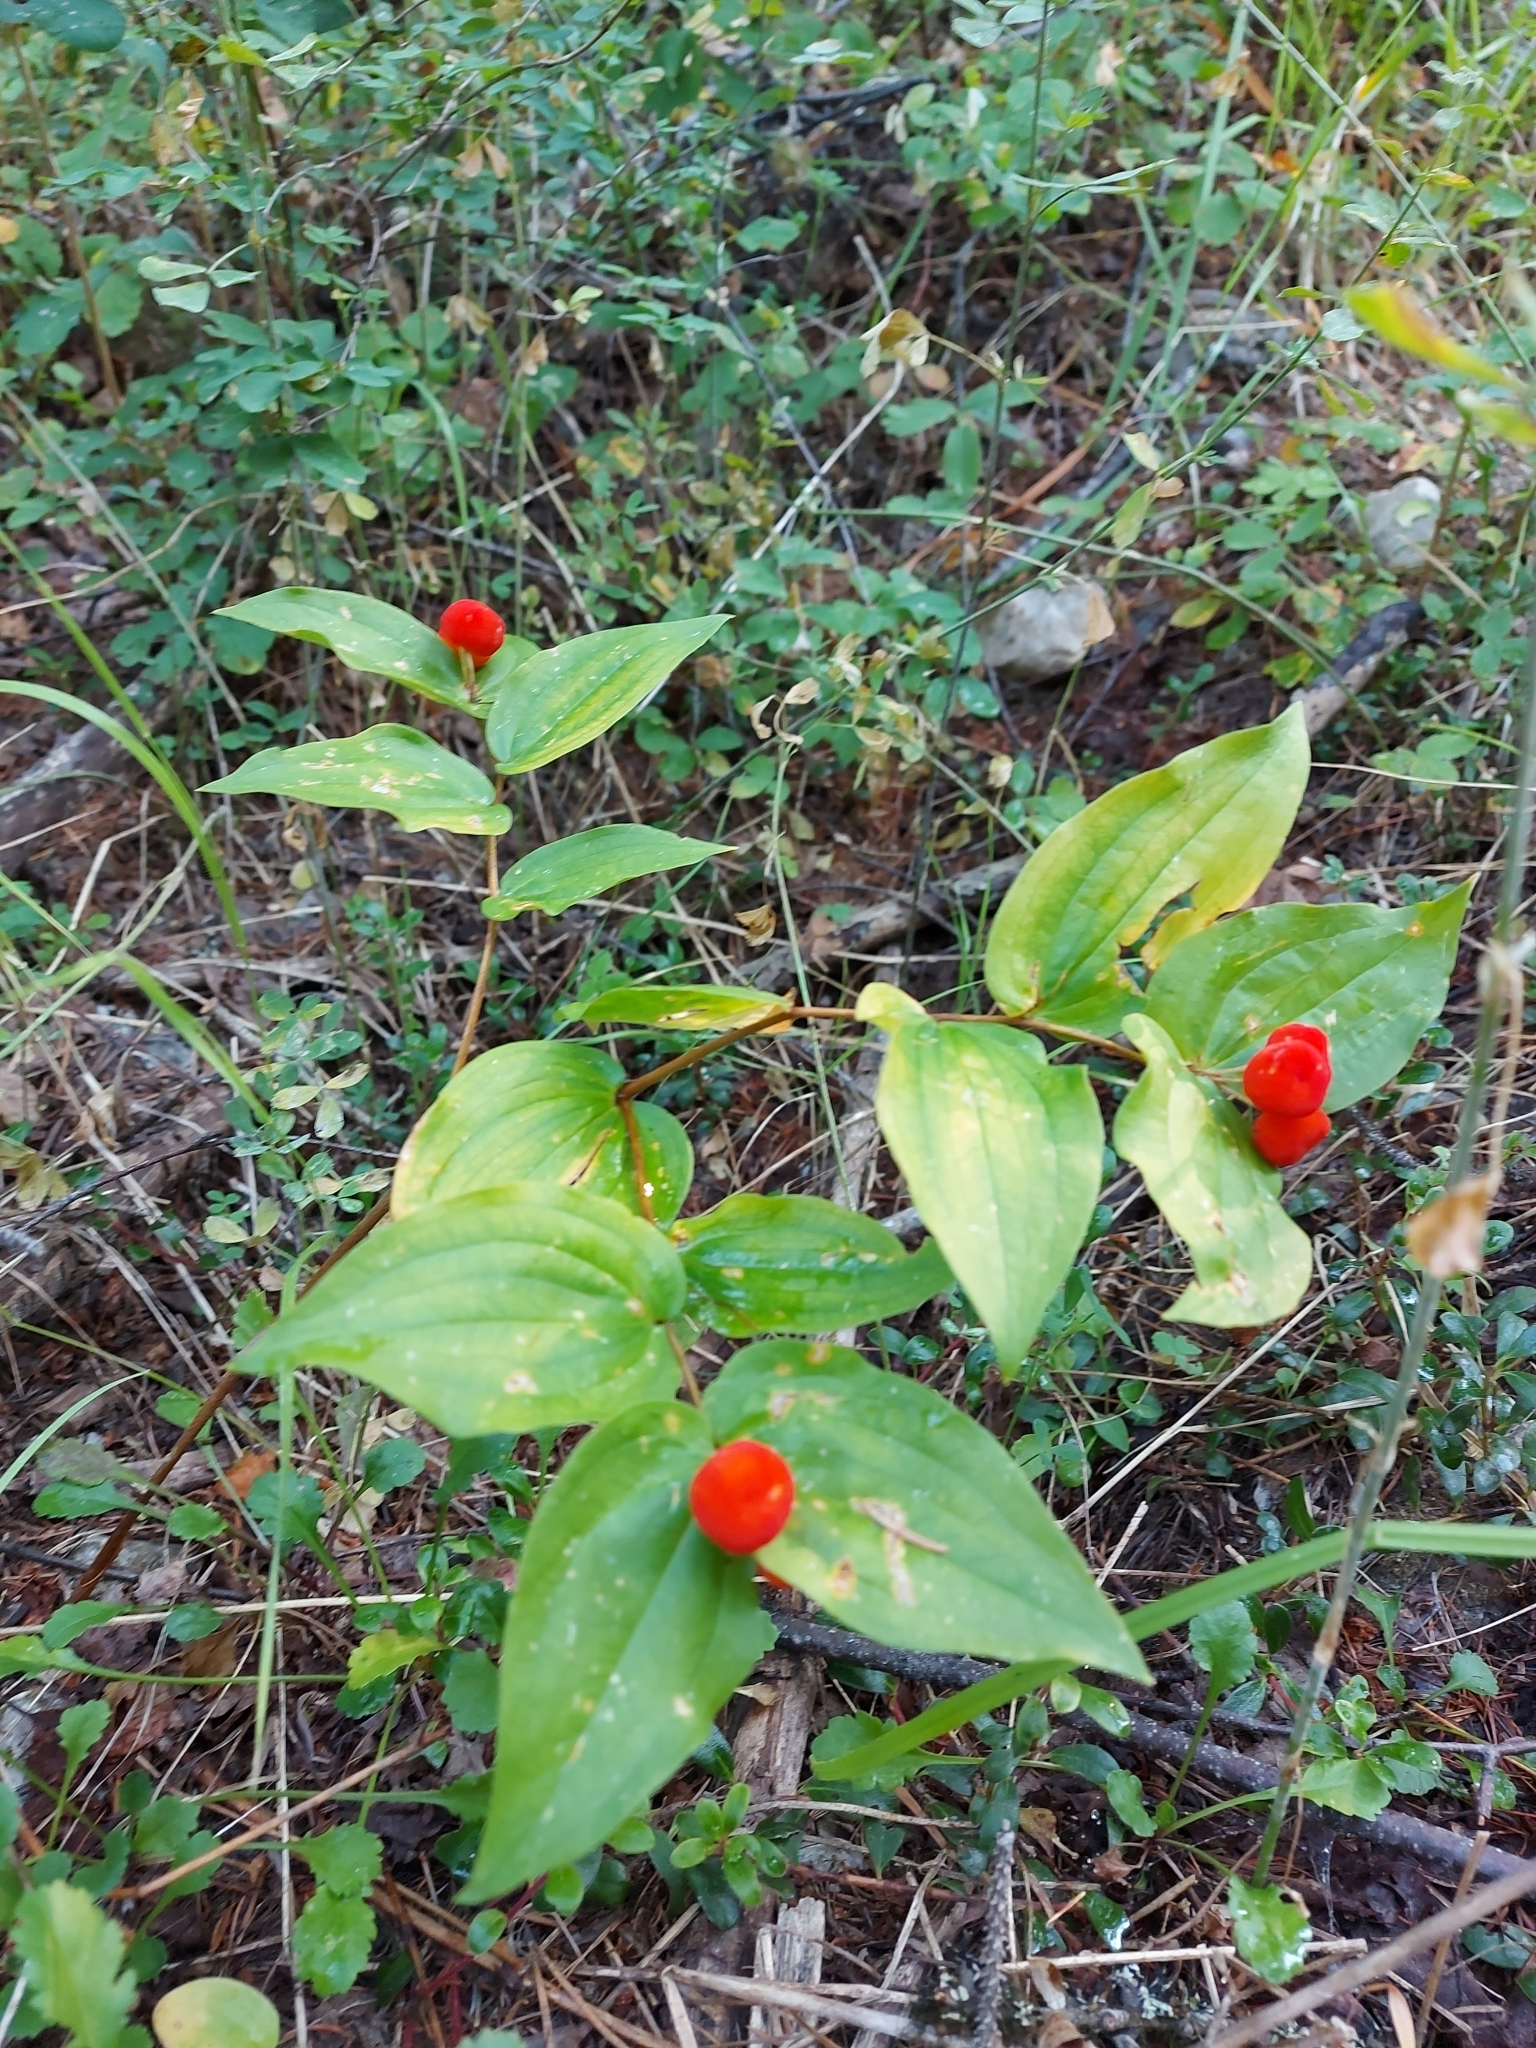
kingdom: Plantae
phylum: Tracheophyta
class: Liliopsida
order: Liliales
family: Liliaceae
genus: Prosartes
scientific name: Prosartes trachycarpa
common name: Rough-fruit fairy-bells
